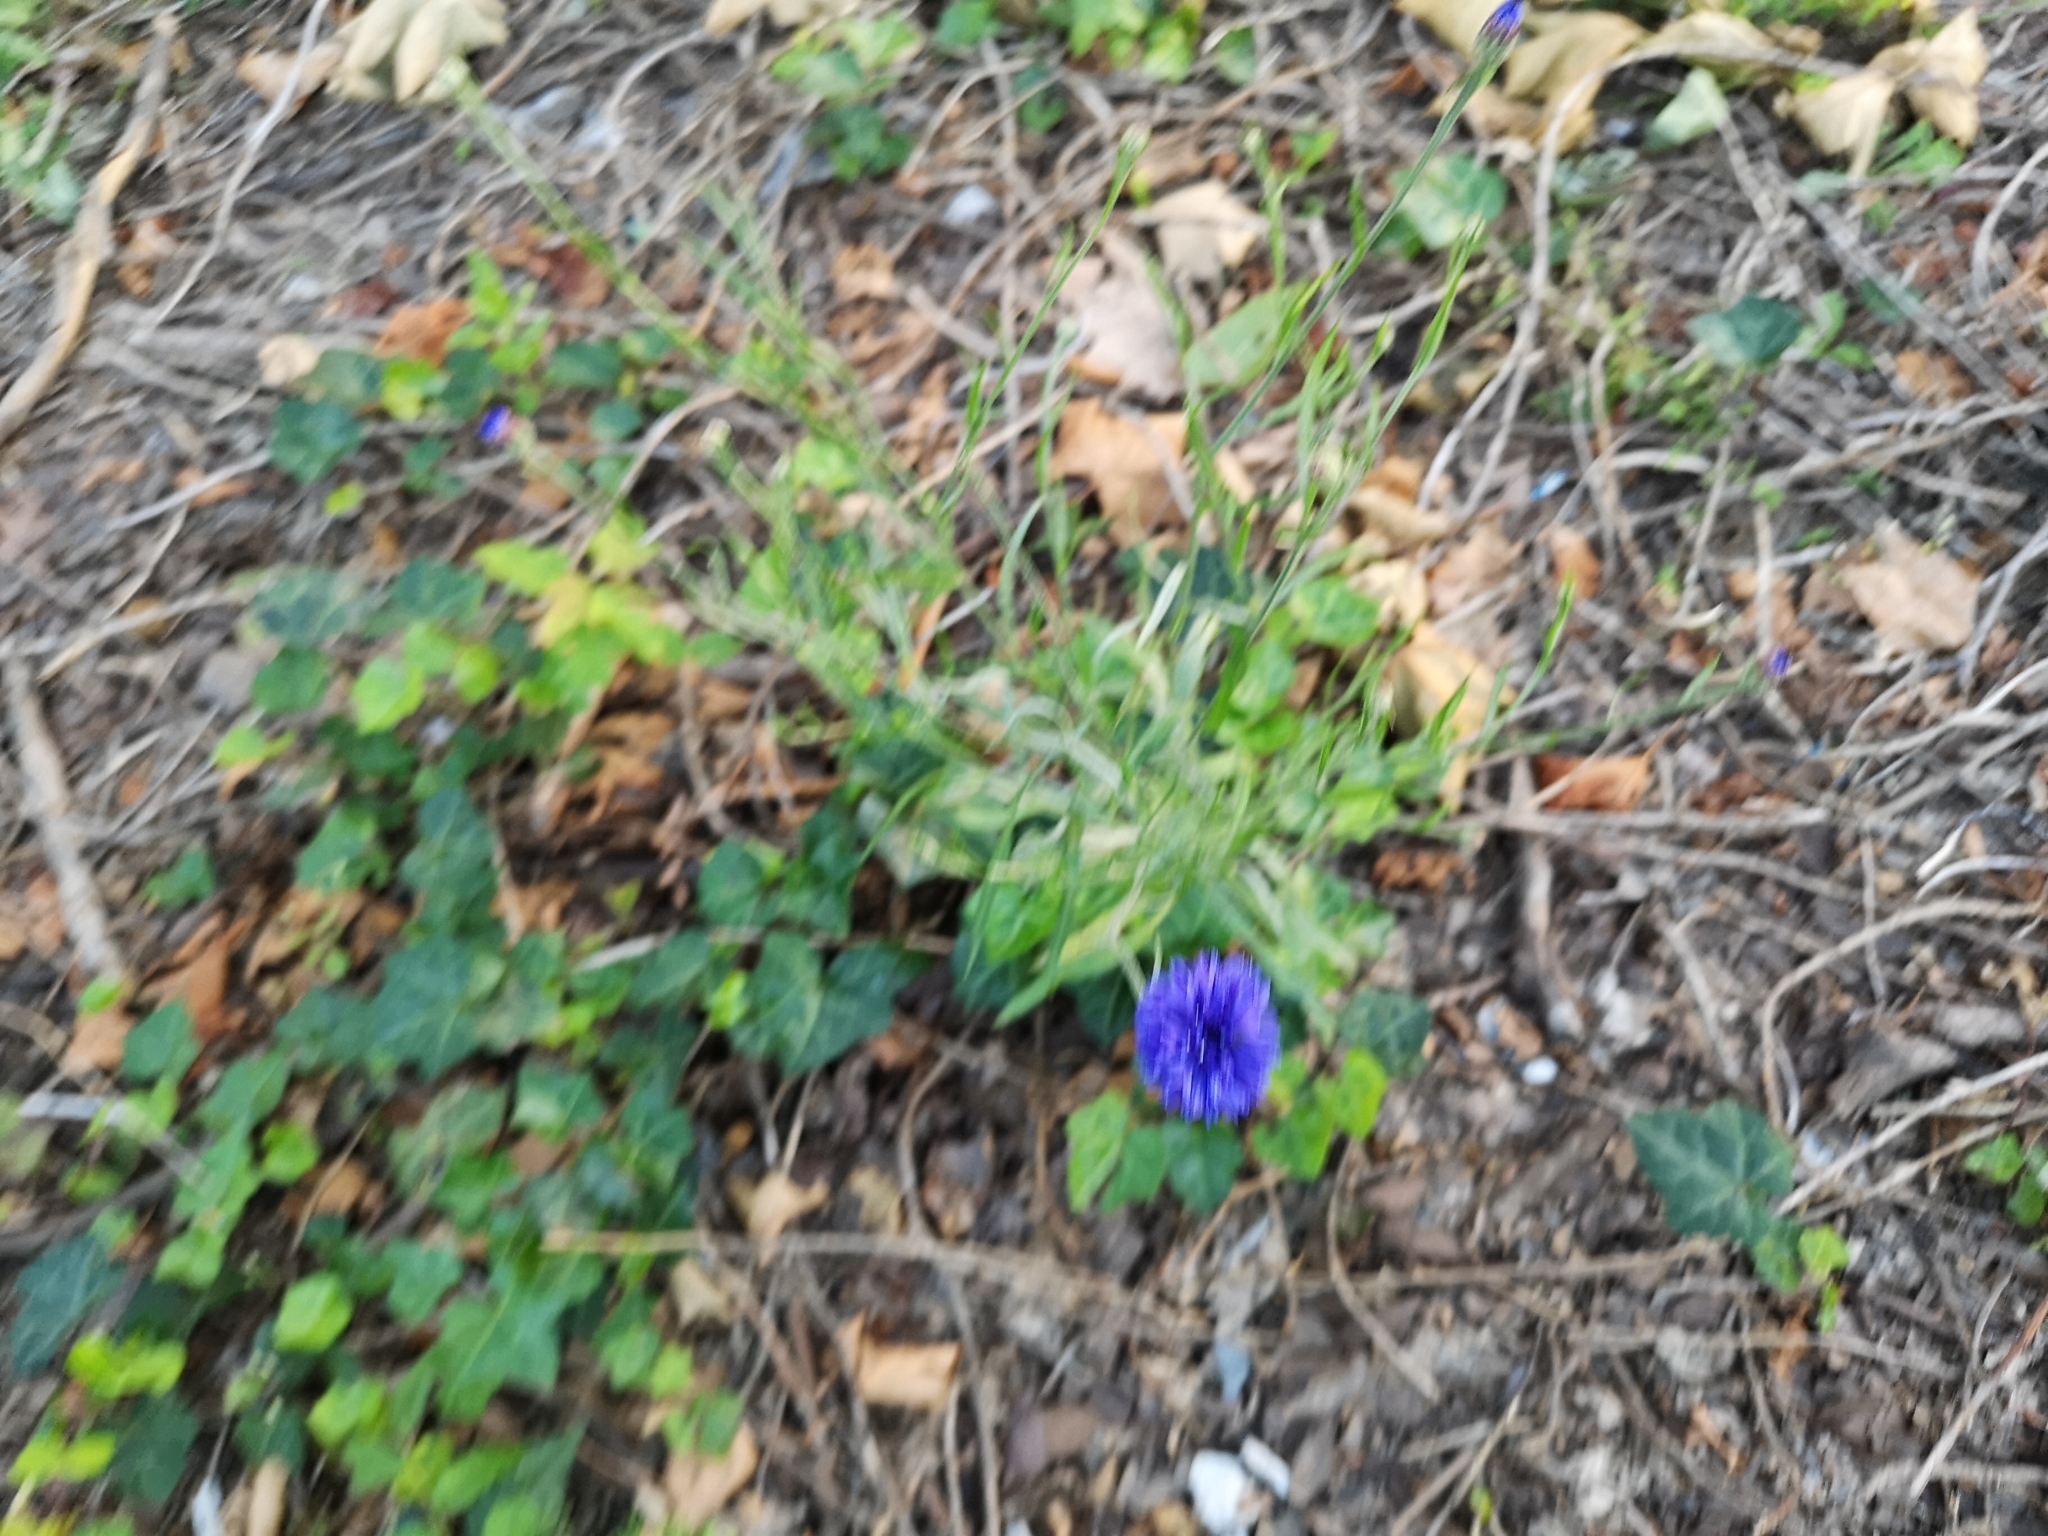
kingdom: Plantae
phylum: Tracheophyta
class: Magnoliopsida
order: Asterales
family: Asteraceae
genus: Centaurea
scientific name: Centaurea cyanus
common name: Cornflower
